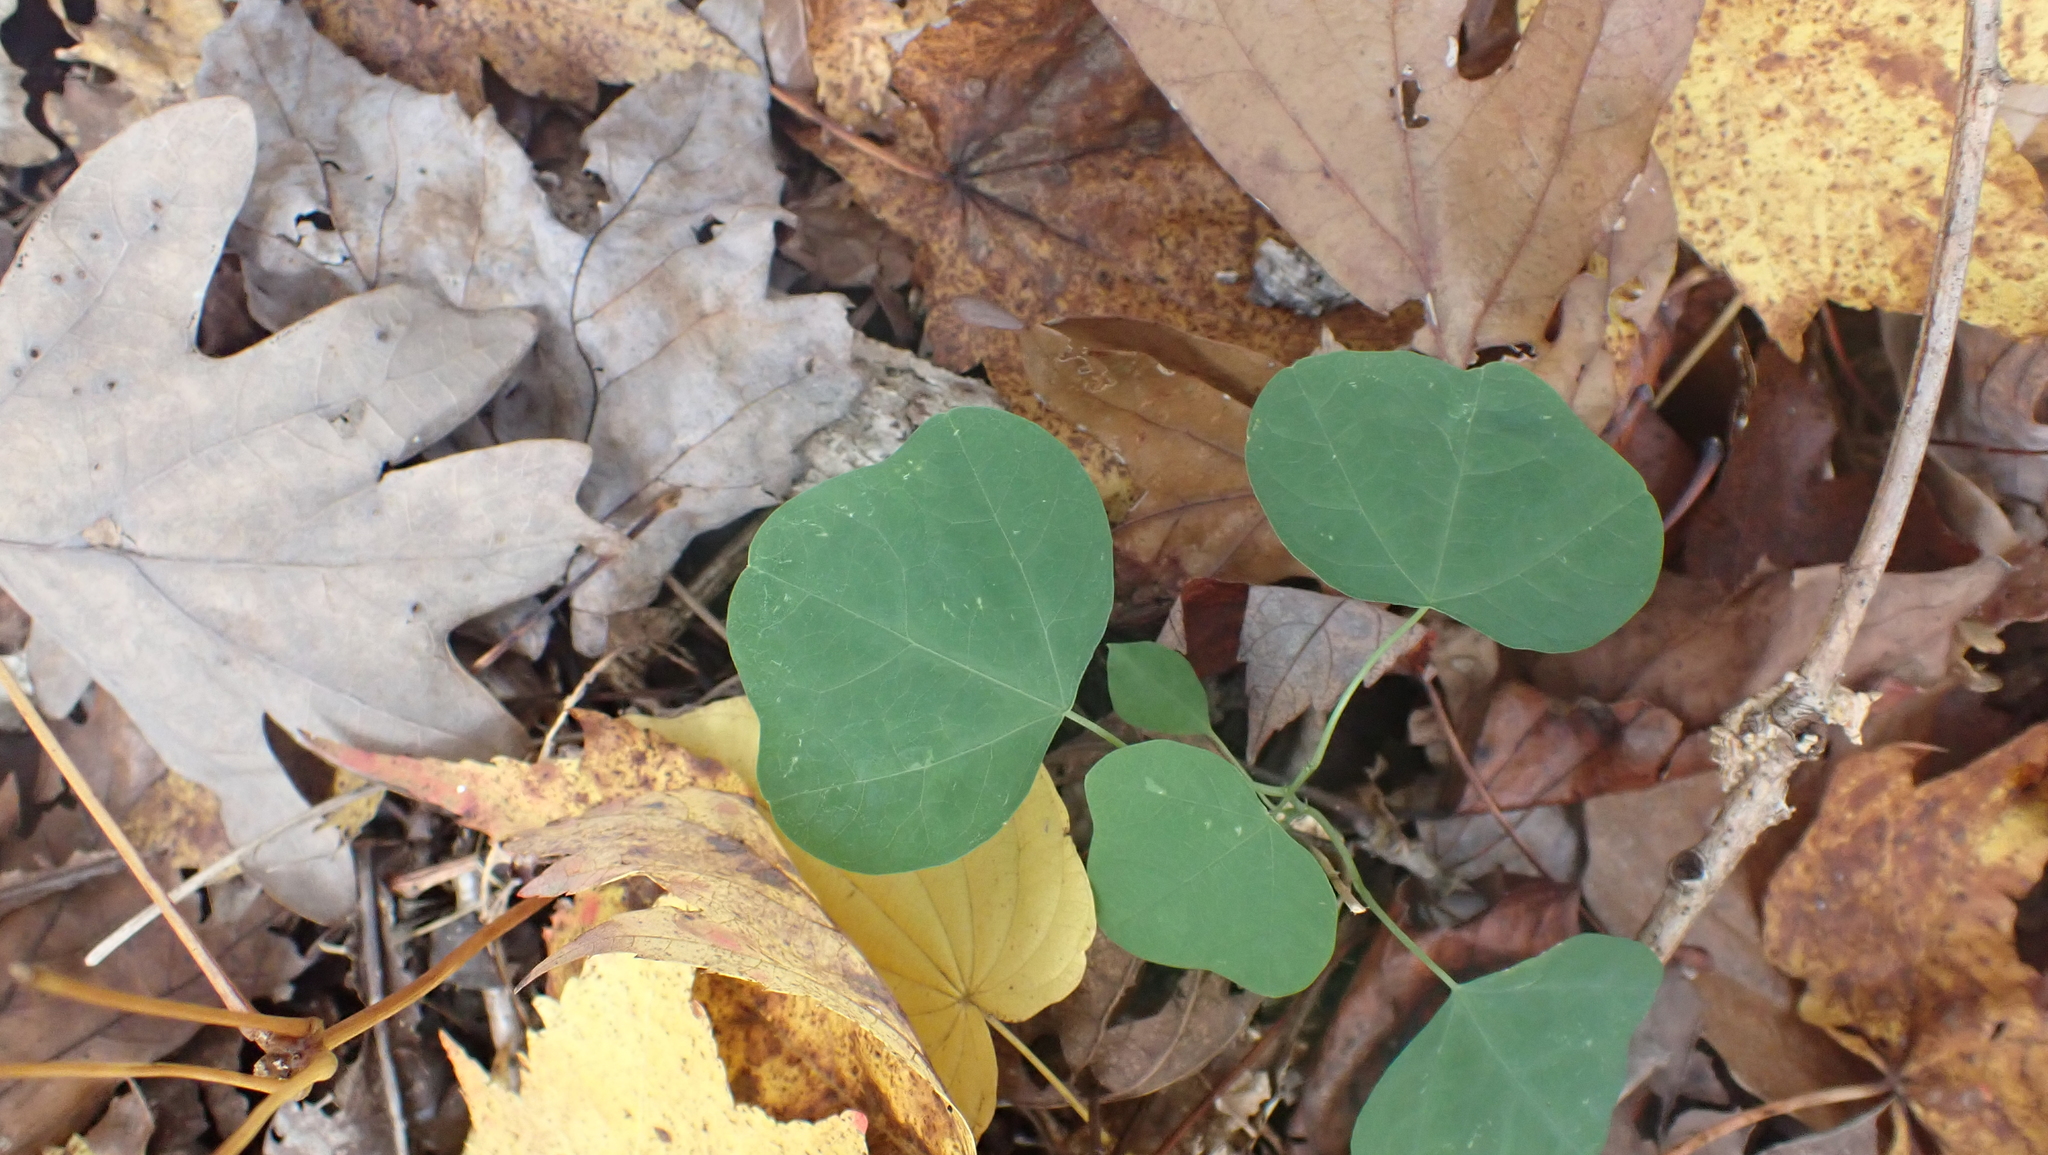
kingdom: Plantae
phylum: Tracheophyta
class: Magnoliopsida
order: Malpighiales
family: Passifloraceae
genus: Passiflora
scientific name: Passiflora lutea
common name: Yellow passionflower
